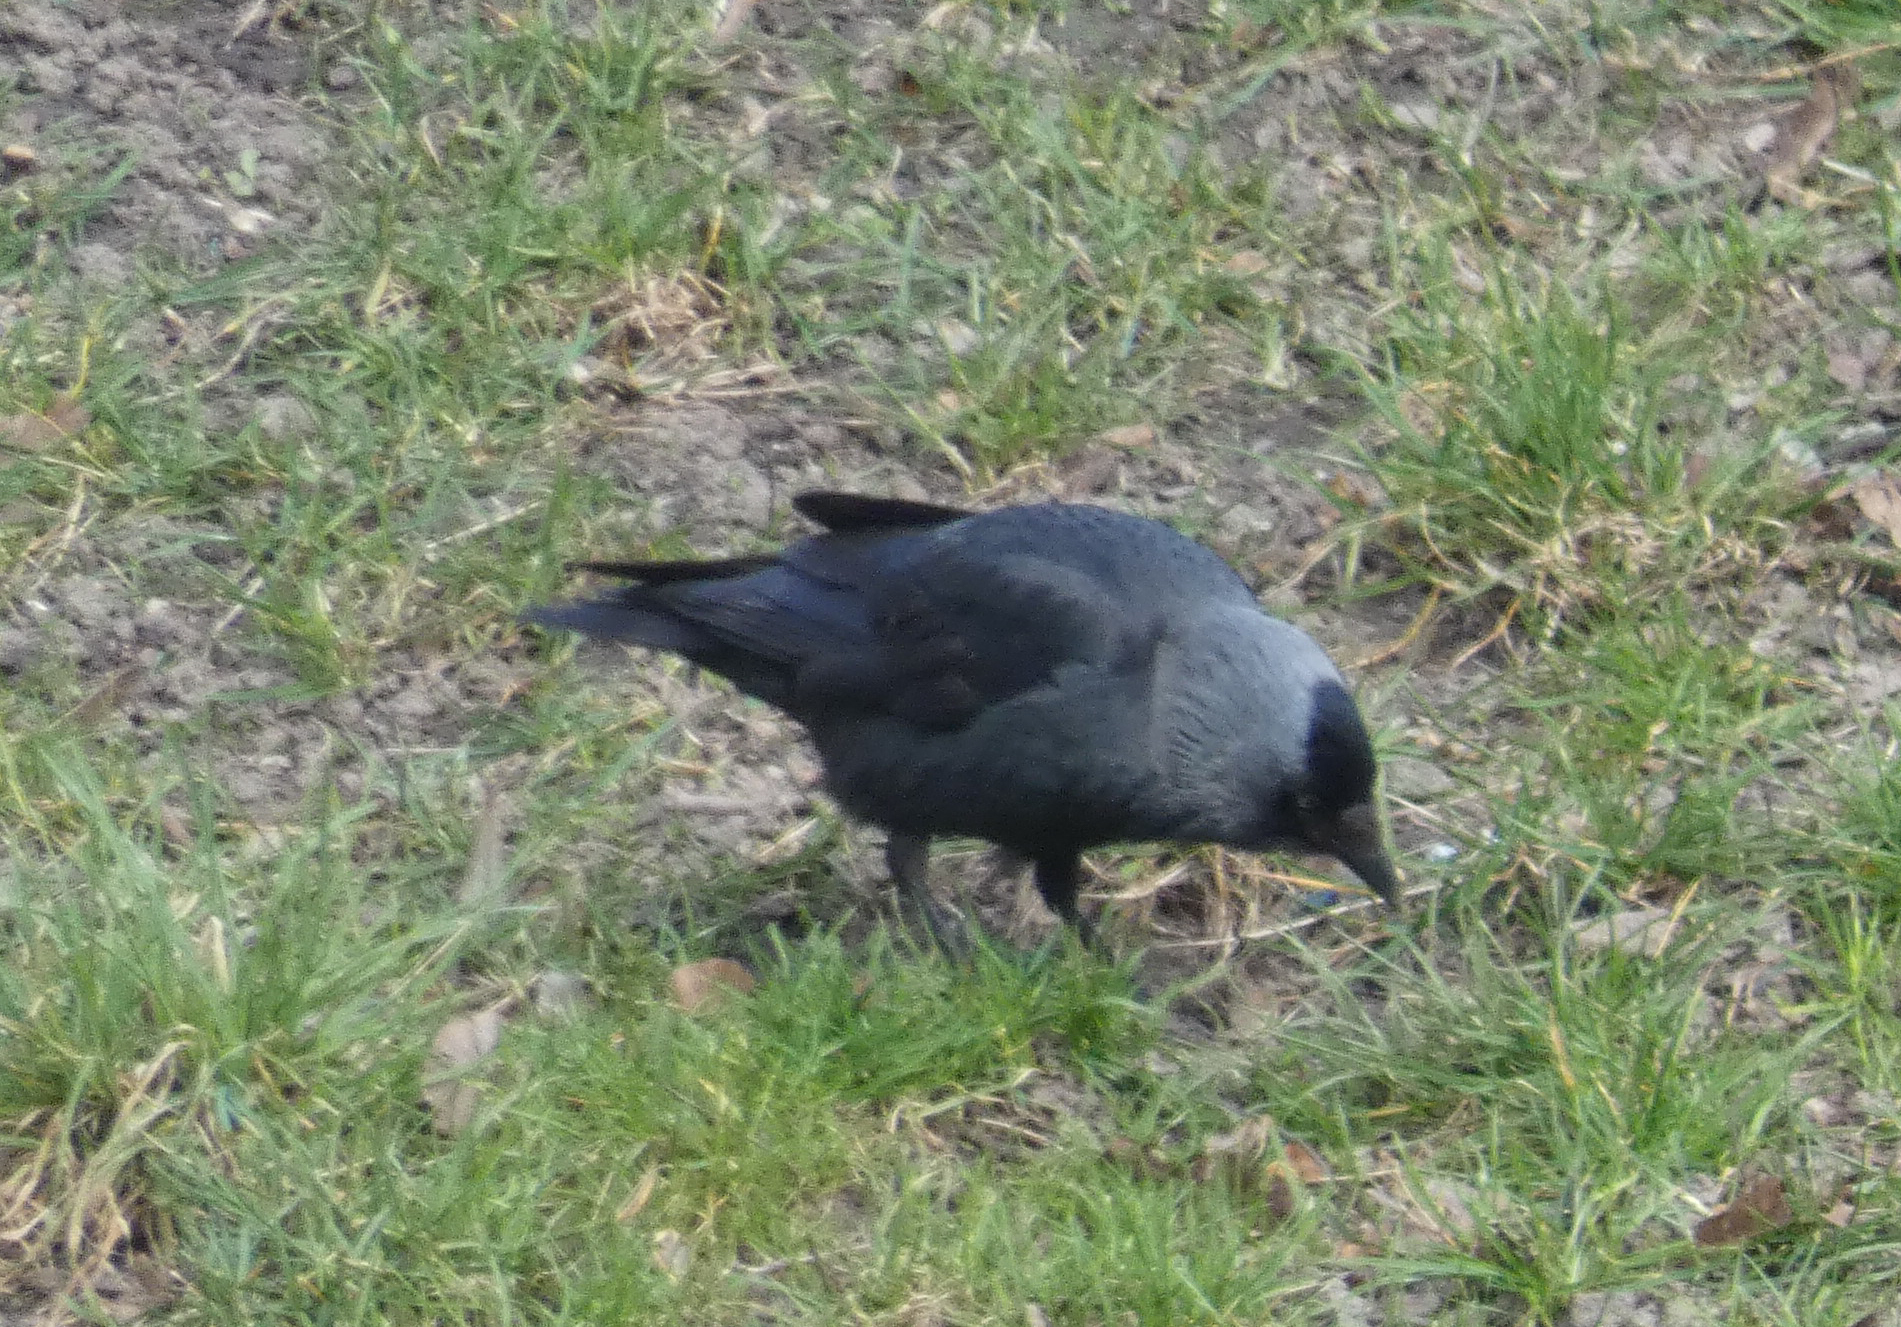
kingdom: Animalia
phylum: Chordata
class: Aves
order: Passeriformes
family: Corvidae
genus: Coloeus
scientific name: Coloeus monedula
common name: Western jackdaw
